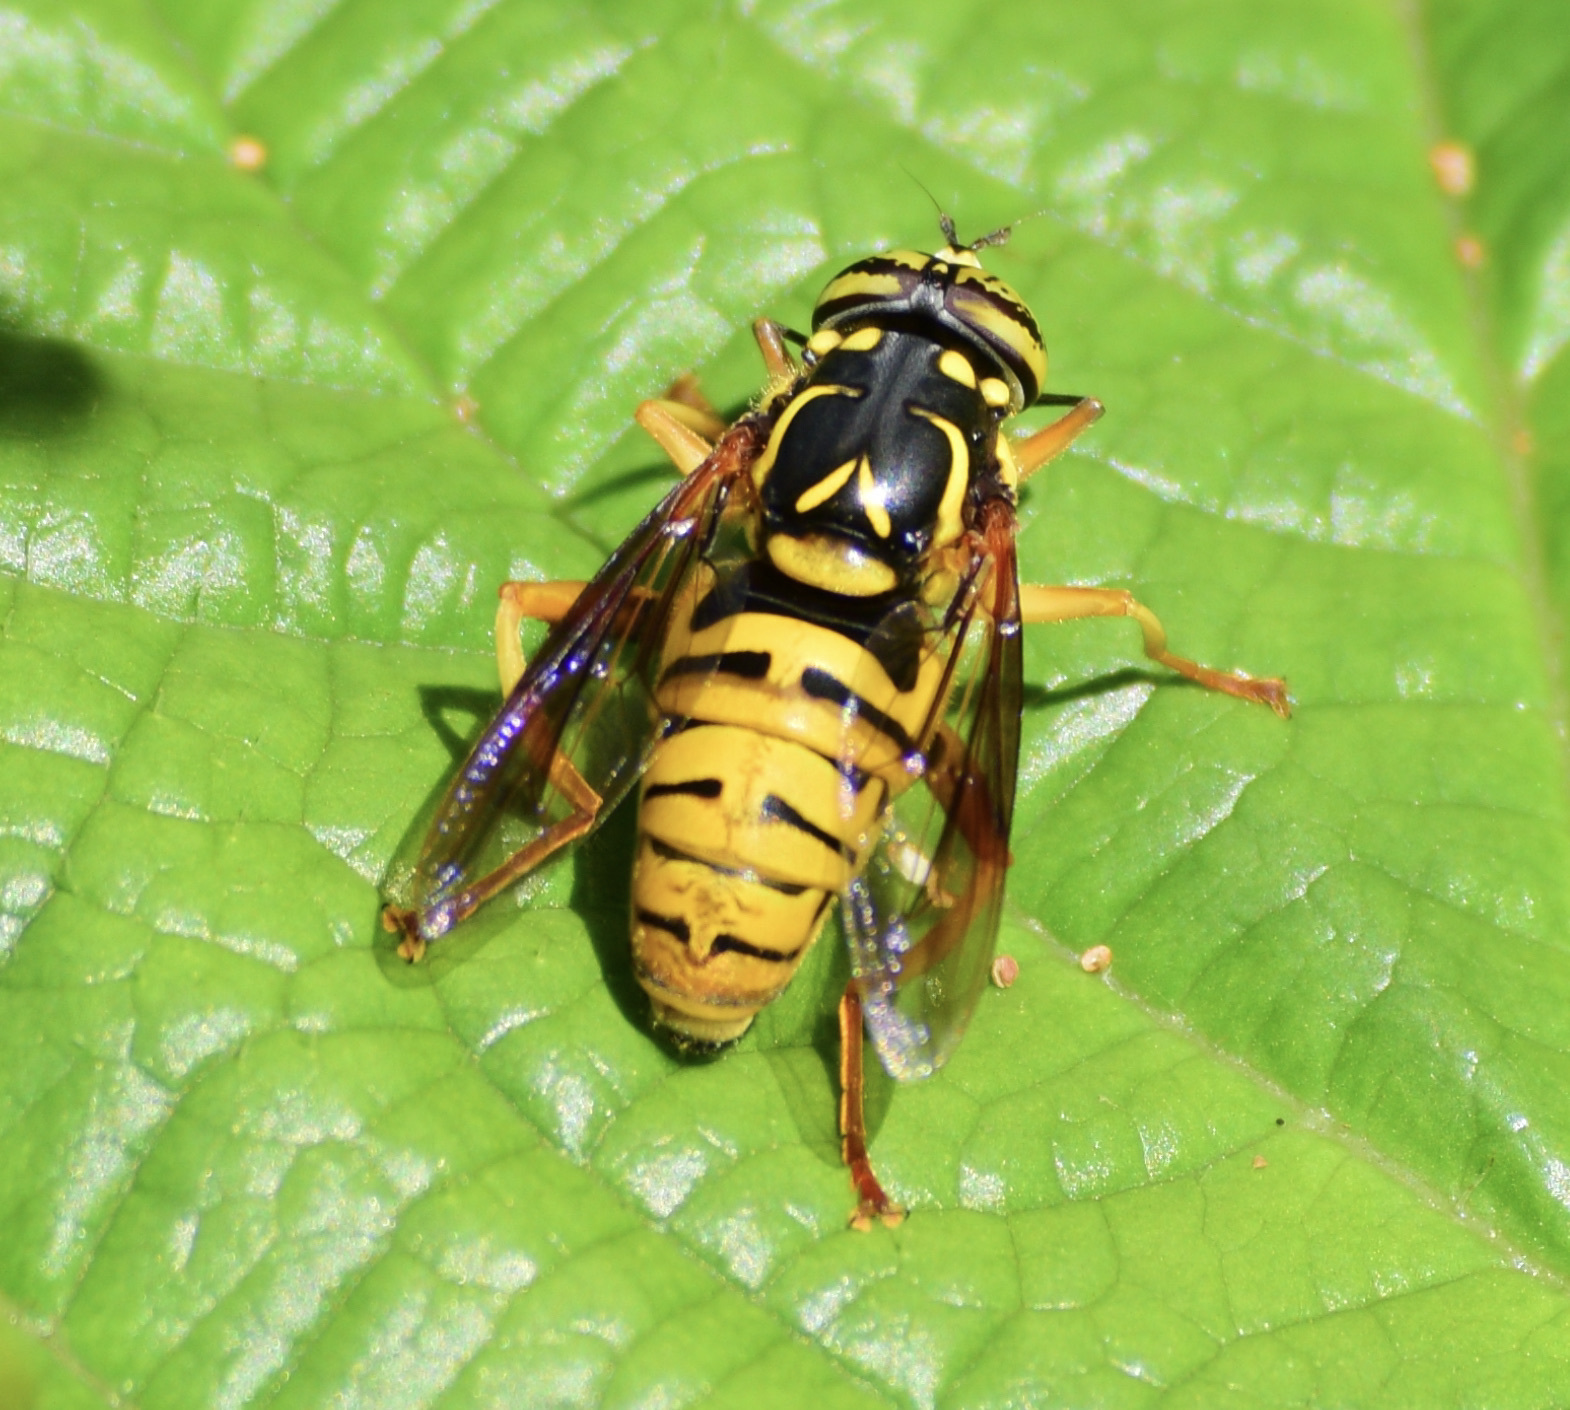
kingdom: Animalia
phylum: Arthropoda
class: Insecta
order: Diptera
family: Syrphidae
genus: Spilomyia
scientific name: Spilomyia alcimus
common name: Broad-banded hornet fly
